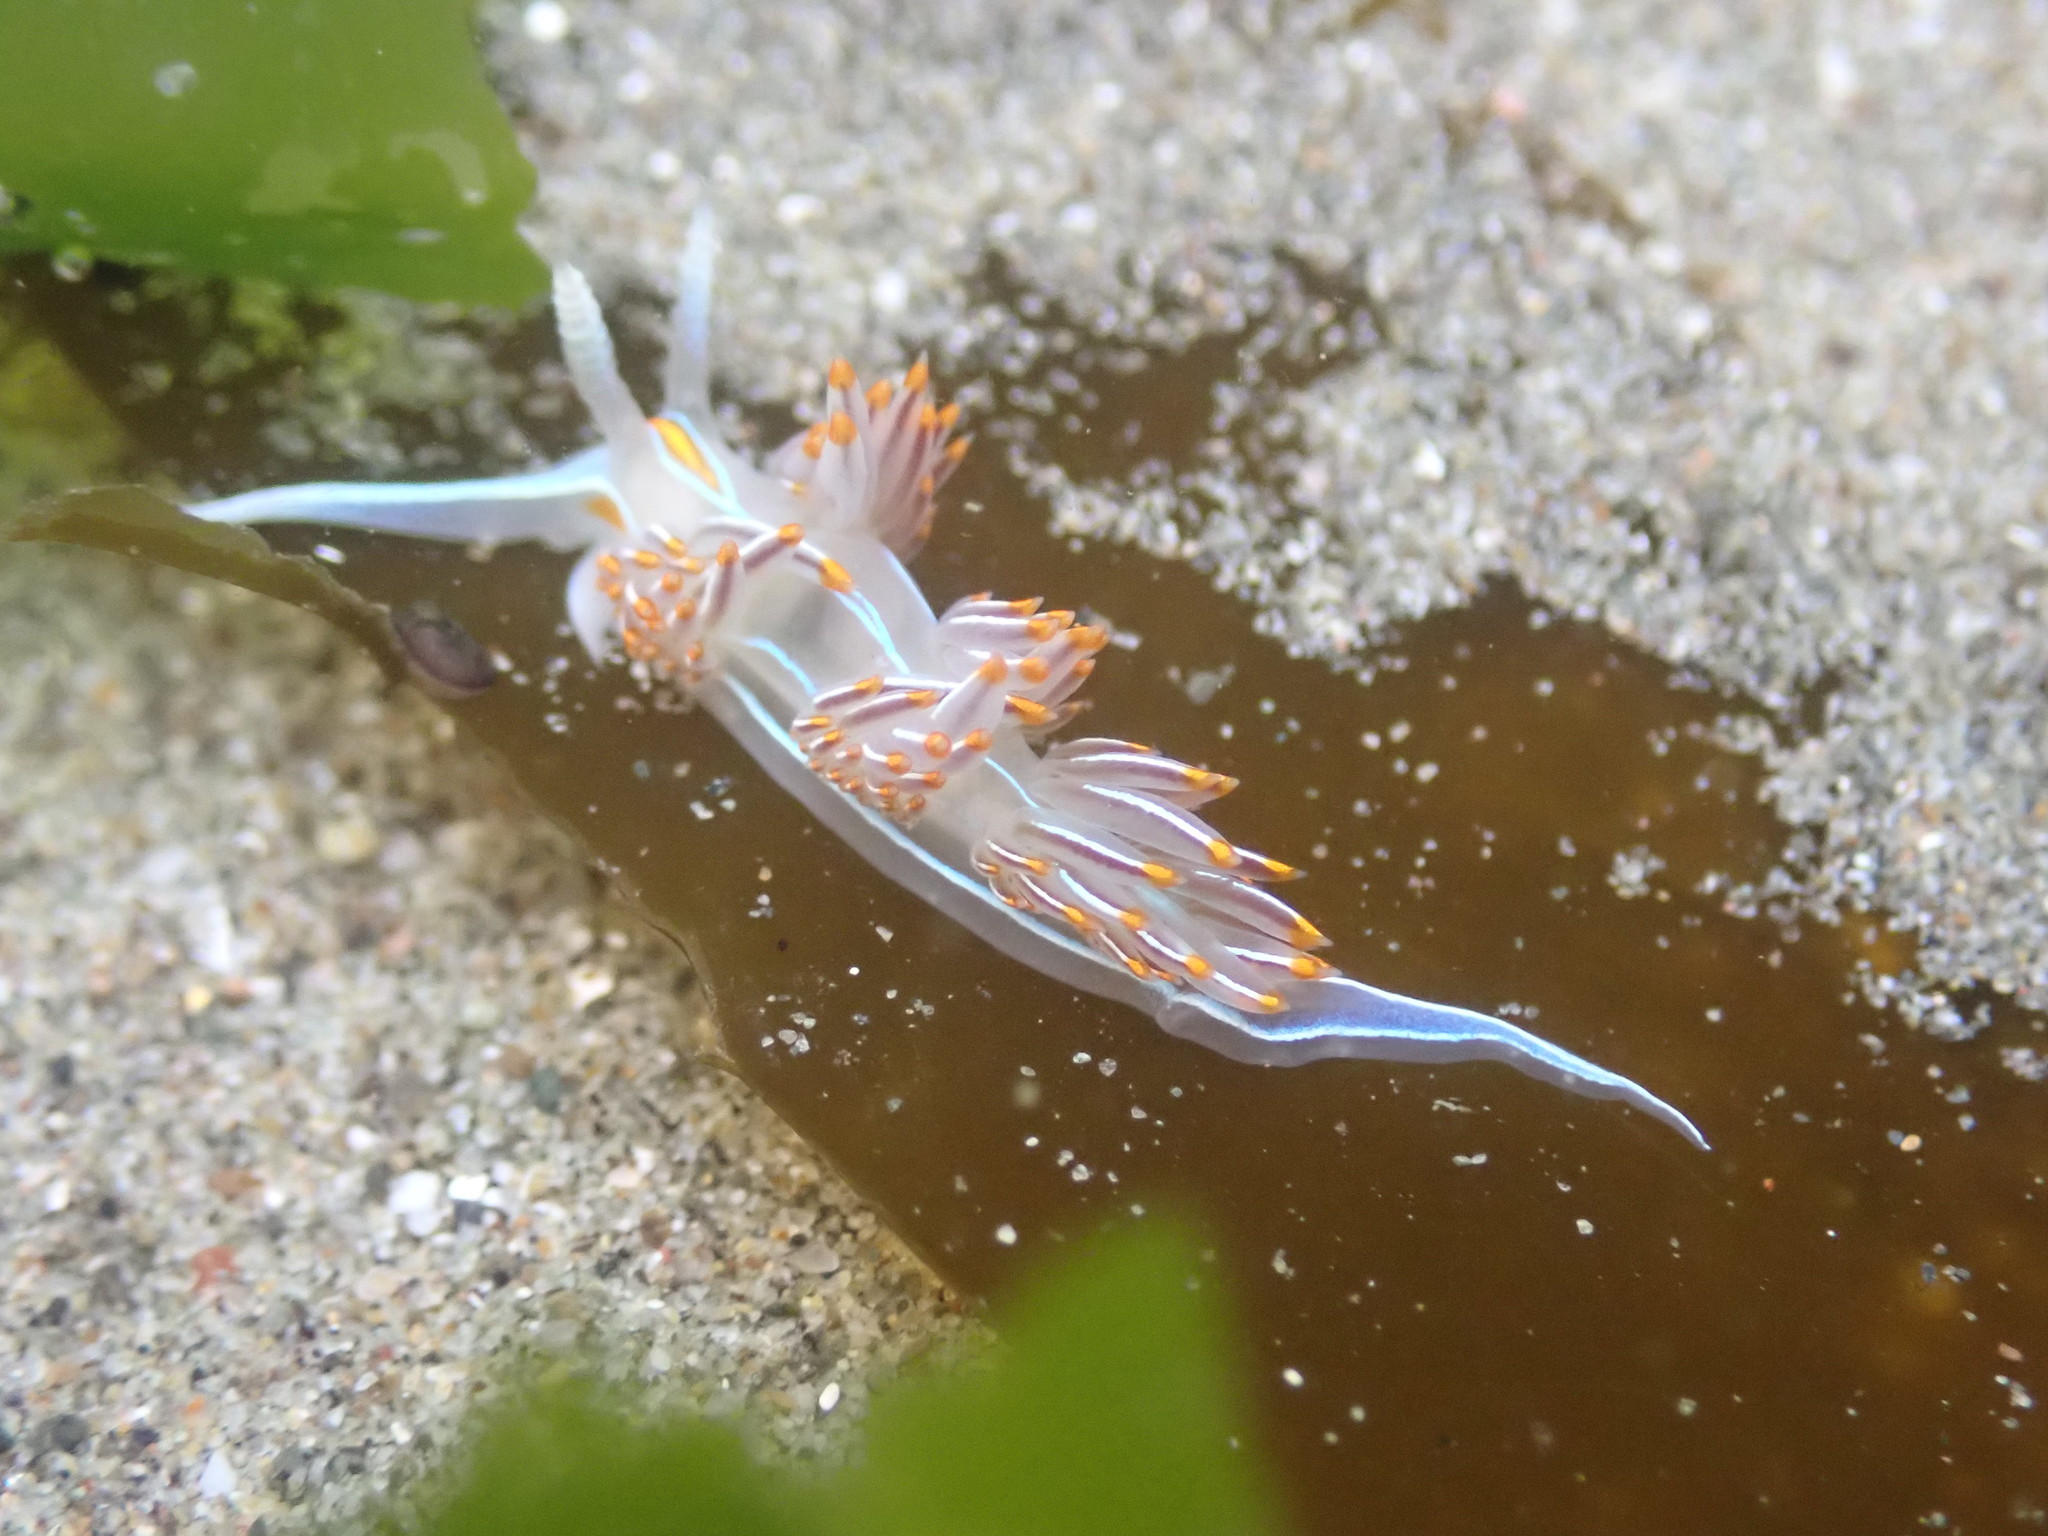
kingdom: Animalia
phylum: Mollusca
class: Gastropoda
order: Nudibranchia
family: Myrrhinidae
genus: Hermissenda
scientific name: Hermissenda crassicornis
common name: Hermissenda
